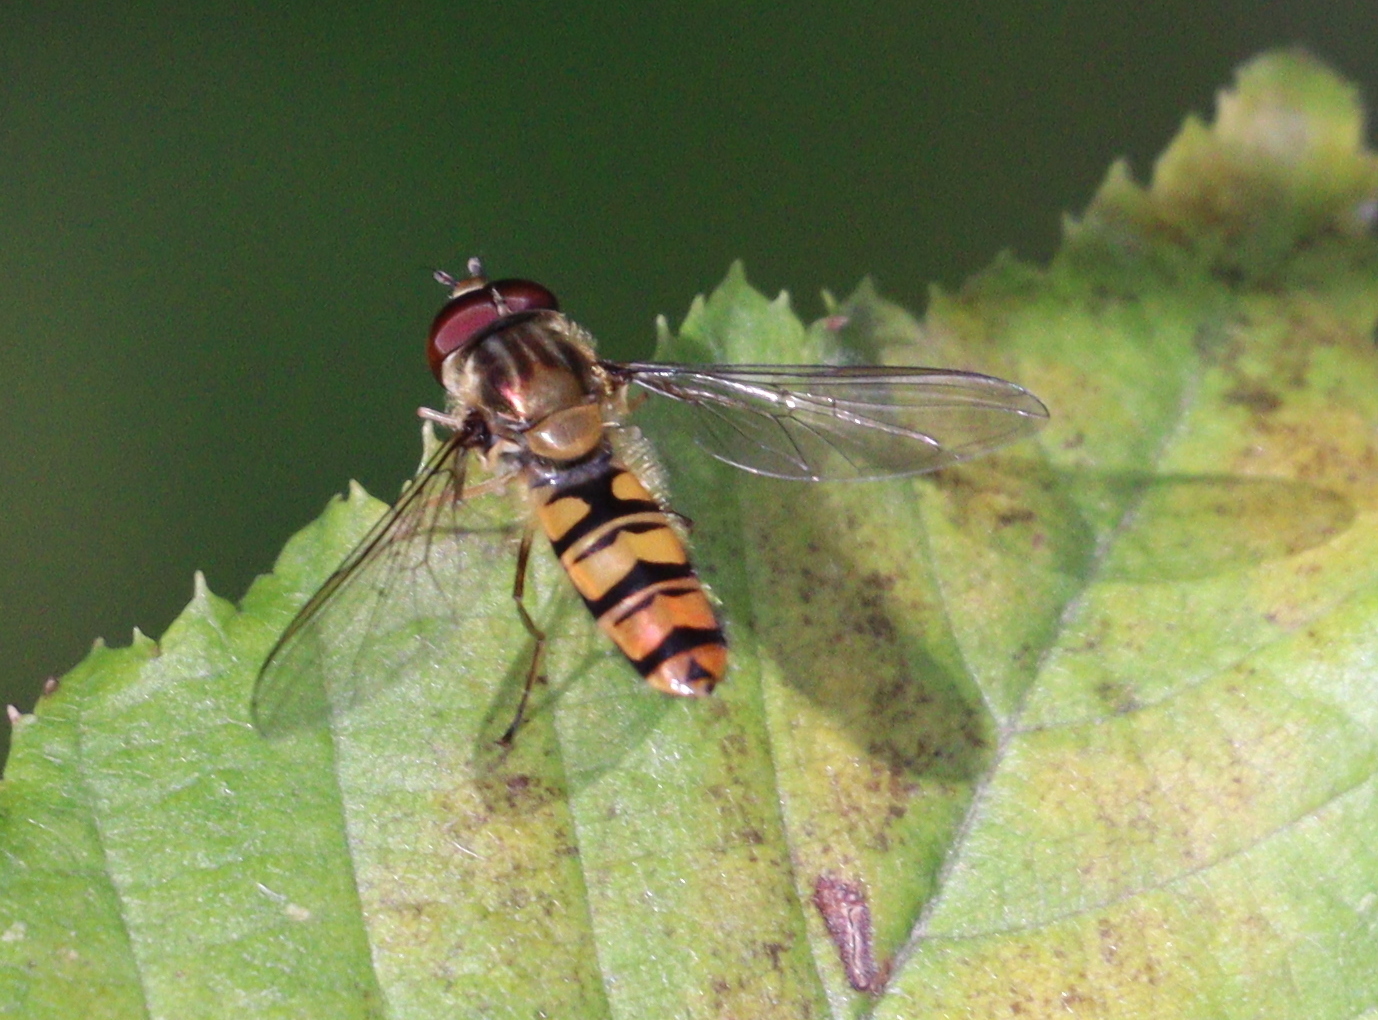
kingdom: Animalia
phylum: Arthropoda
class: Insecta
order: Diptera
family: Syrphidae
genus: Episyrphus
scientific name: Episyrphus balteatus
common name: Marmalade hoverfly
